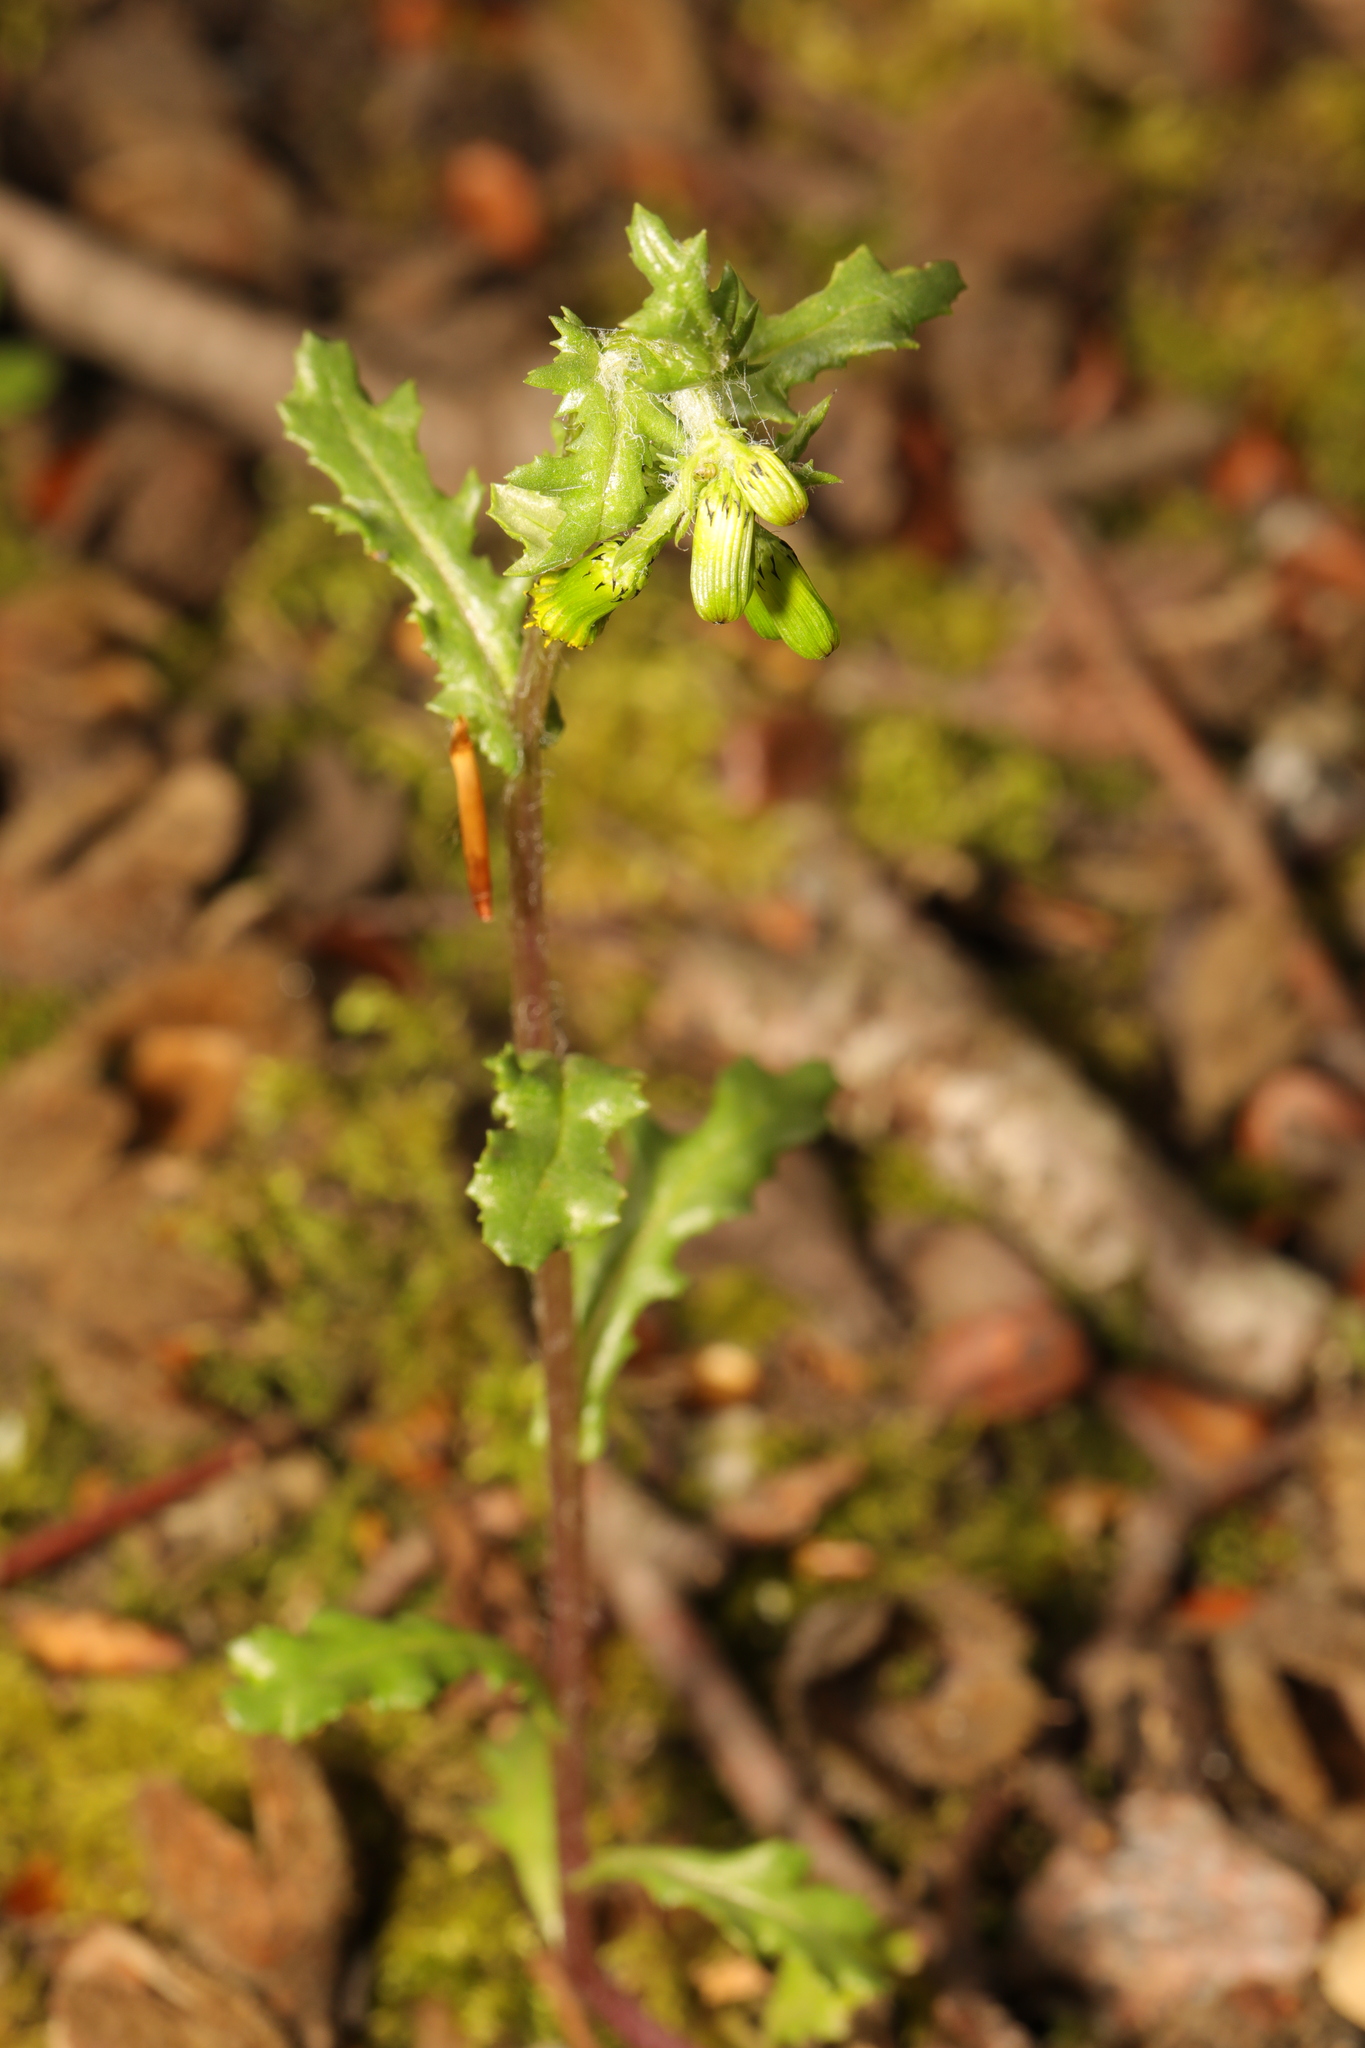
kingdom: Plantae
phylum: Tracheophyta
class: Magnoliopsida
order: Asterales
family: Asteraceae
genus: Senecio
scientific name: Senecio vulgaris
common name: Old-man-in-the-spring
